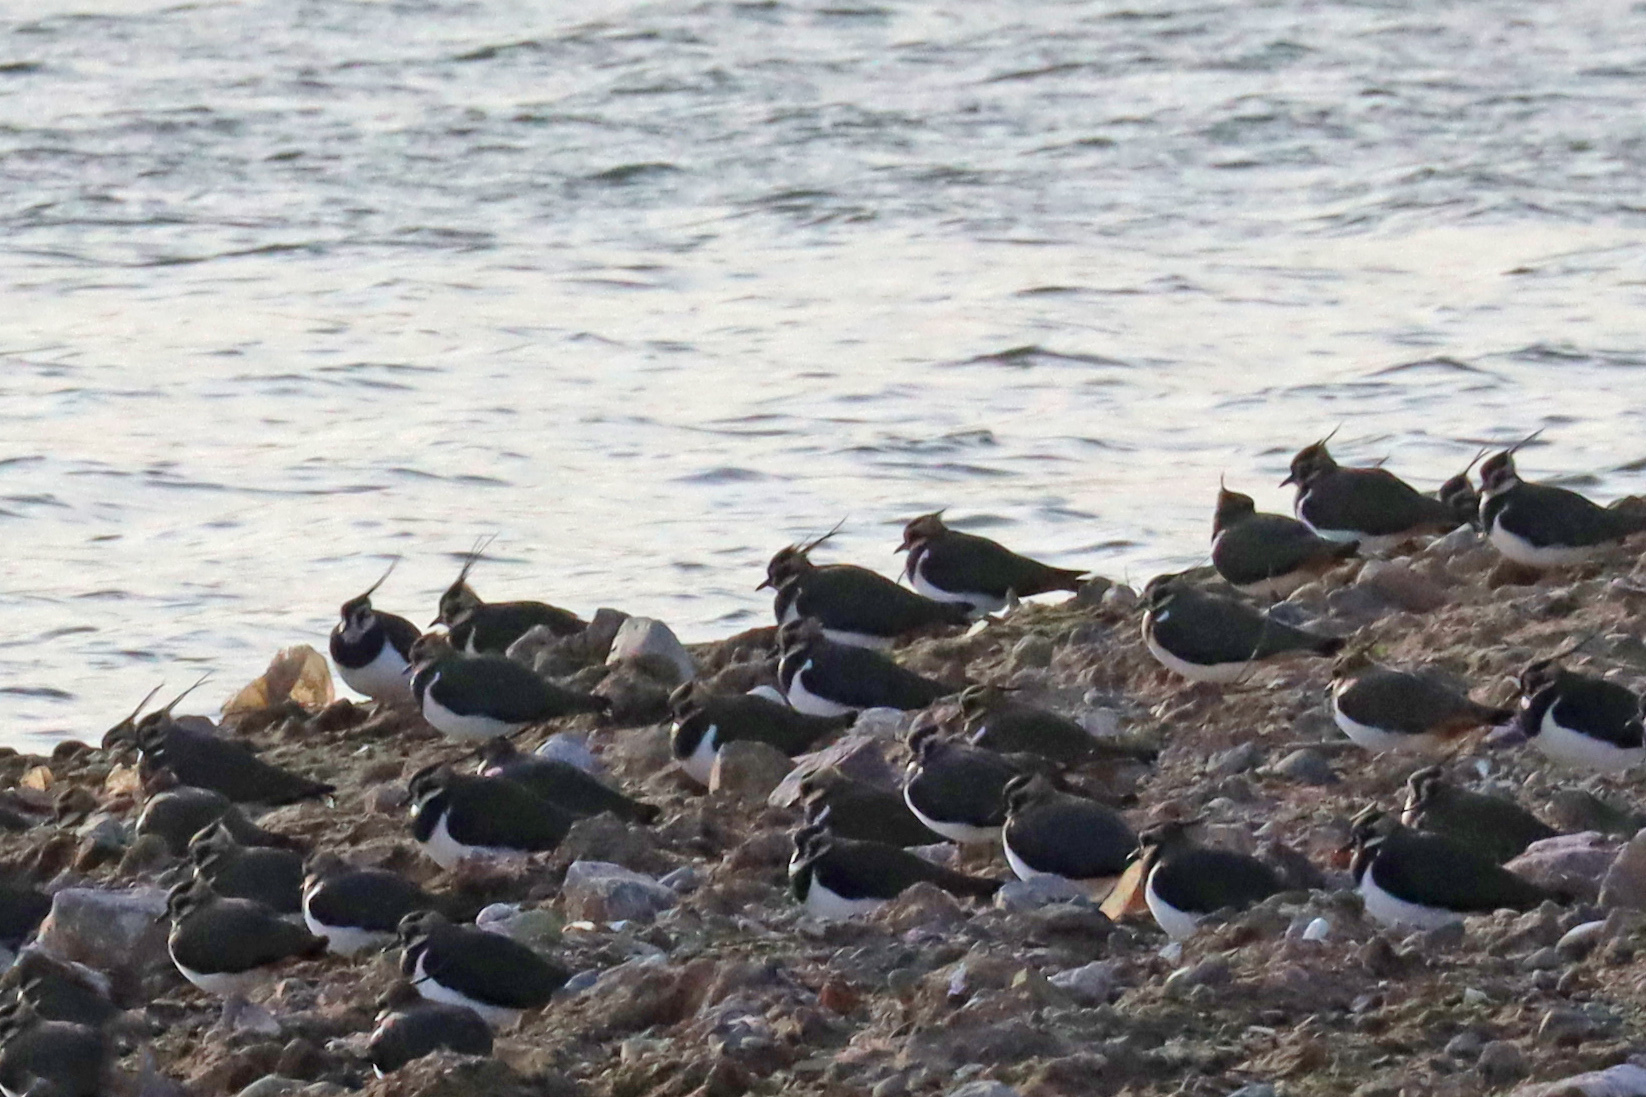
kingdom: Animalia
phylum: Chordata
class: Aves
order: Charadriiformes
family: Charadriidae
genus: Vanellus
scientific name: Vanellus vanellus
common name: Northern lapwing
